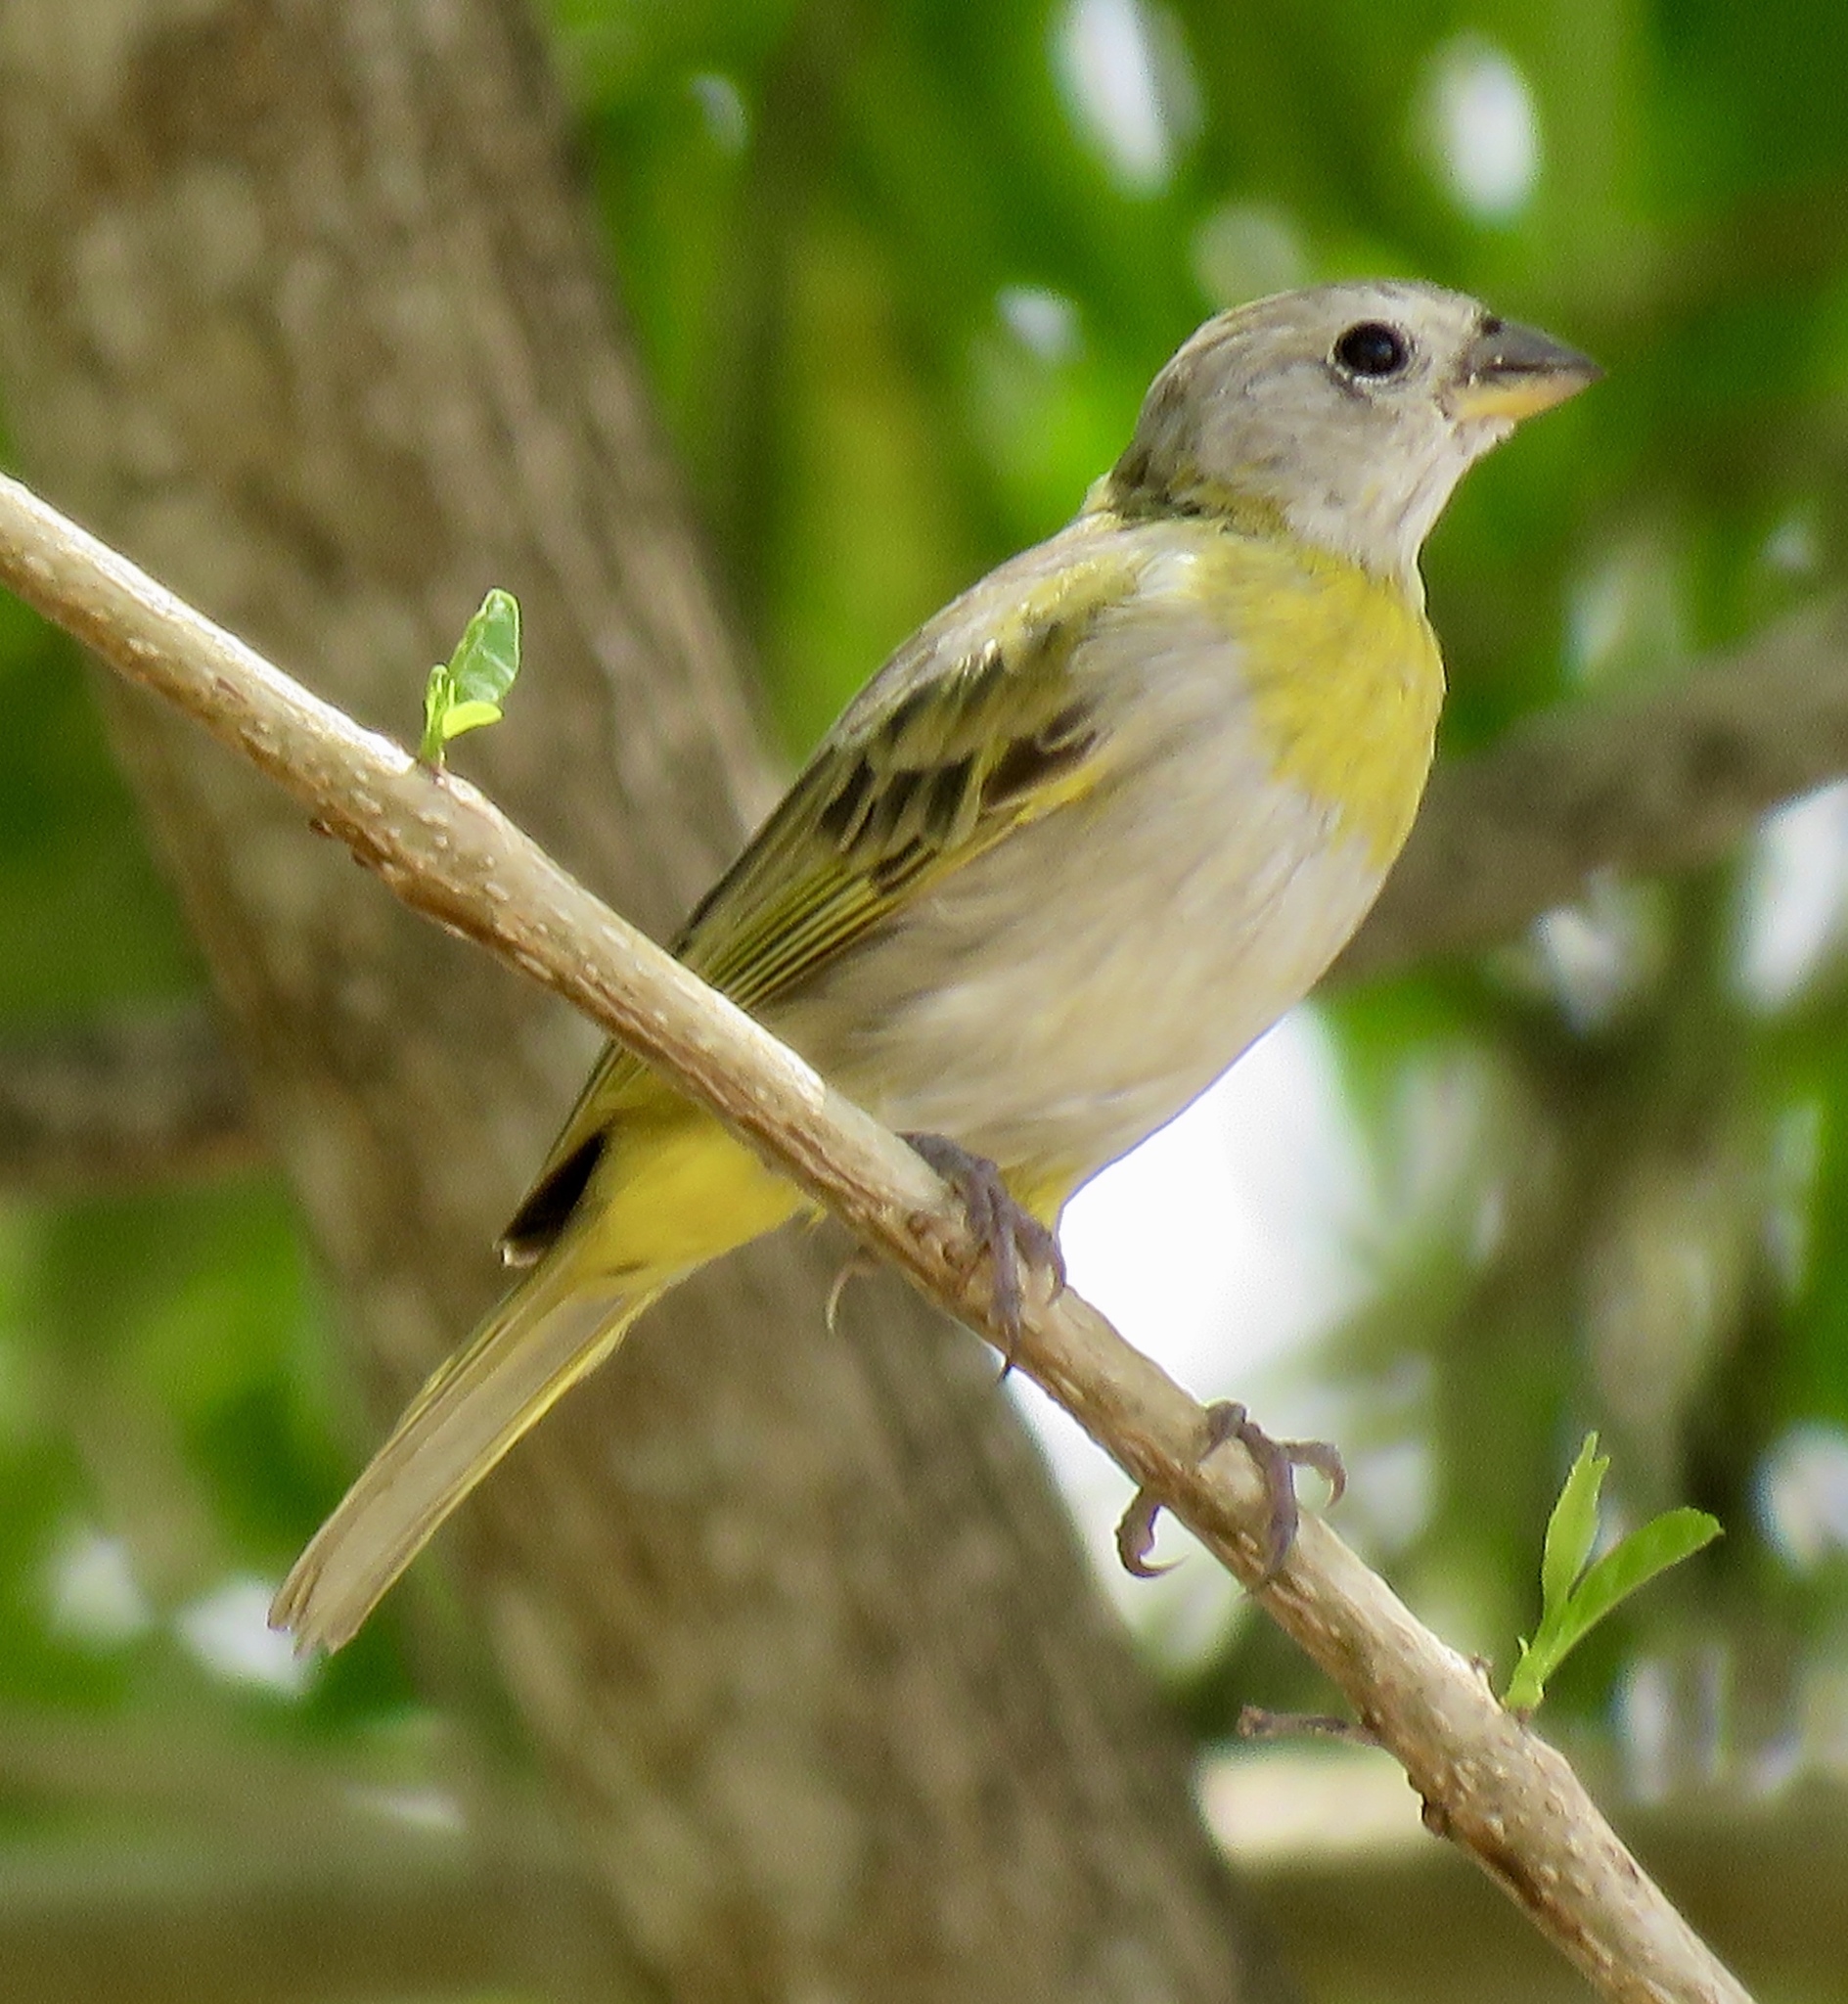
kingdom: Animalia
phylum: Chordata
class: Aves
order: Passeriformes
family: Thraupidae
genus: Sicalis
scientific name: Sicalis flaveola
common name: Saffron finch
